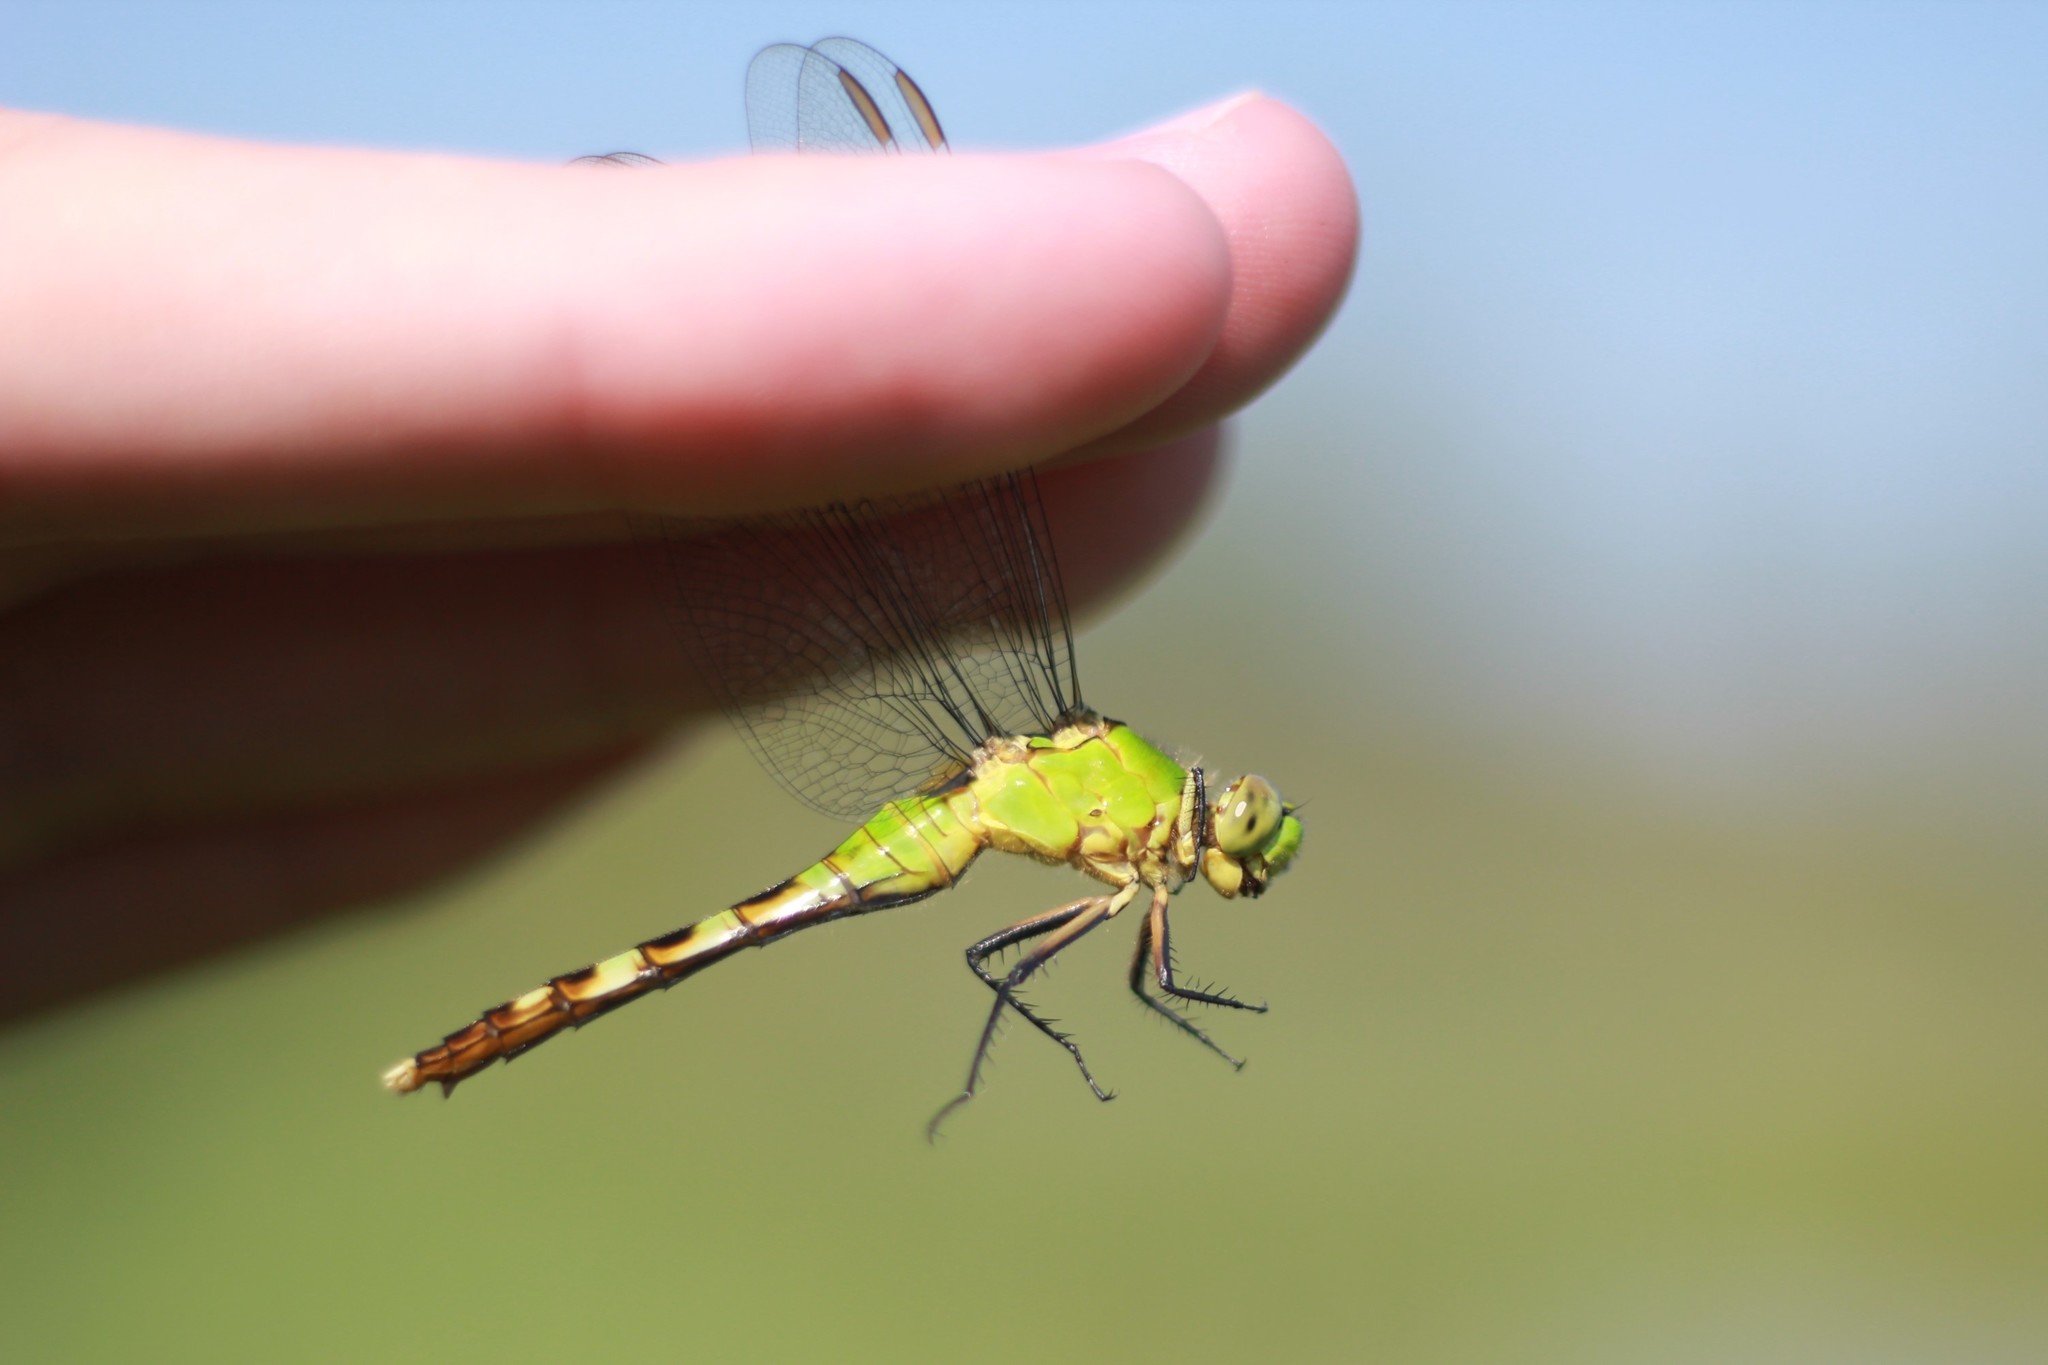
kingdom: Animalia
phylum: Arthropoda
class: Insecta
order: Odonata
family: Libellulidae
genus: Erythemis
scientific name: Erythemis simplicicollis
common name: Eastern pondhawk
